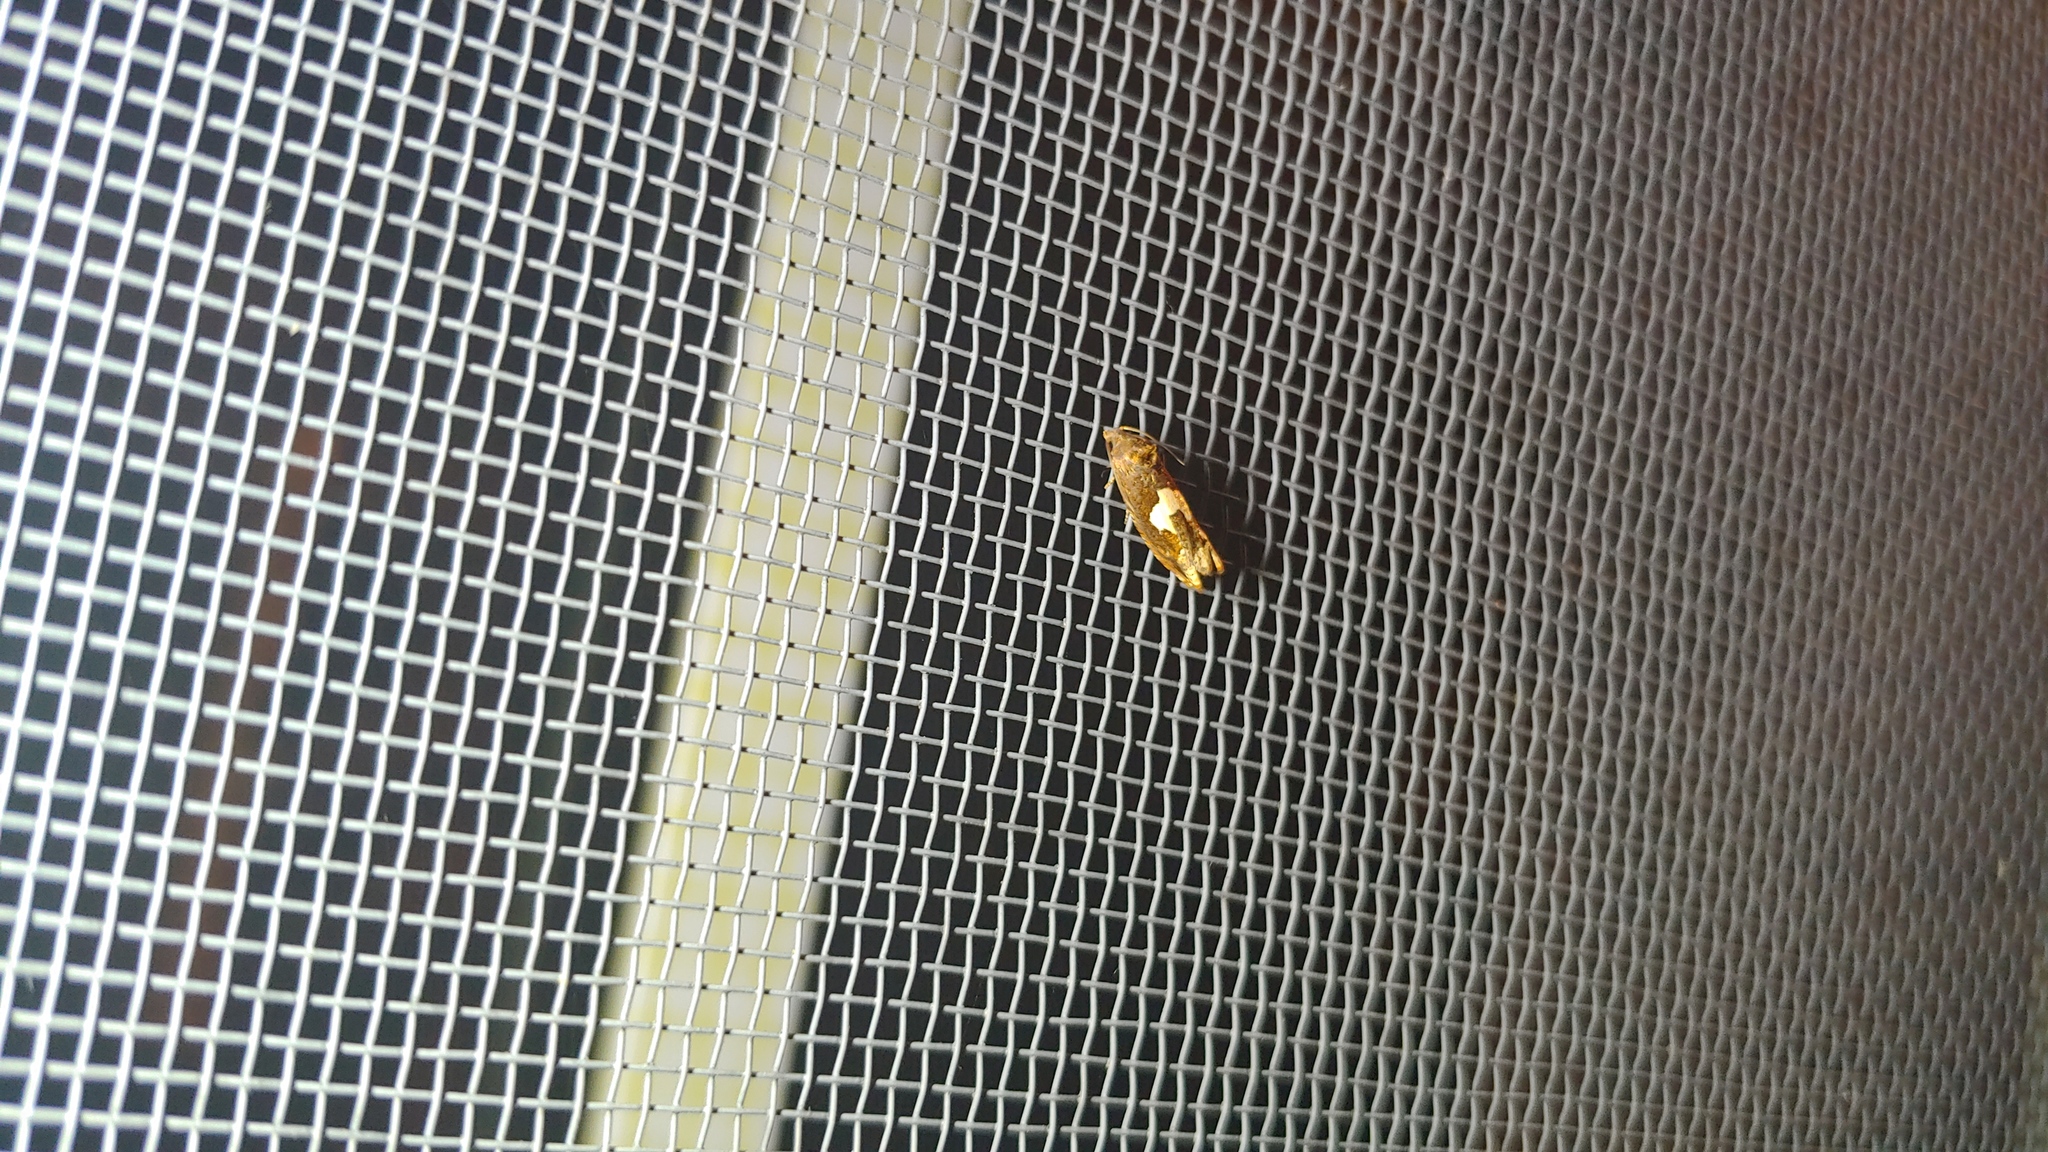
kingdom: Animalia
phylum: Arthropoda
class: Insecta
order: Lepidoptera
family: Tortricidae
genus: Epiblema
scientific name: Epiblema otiosana
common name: Bidens borer moth
